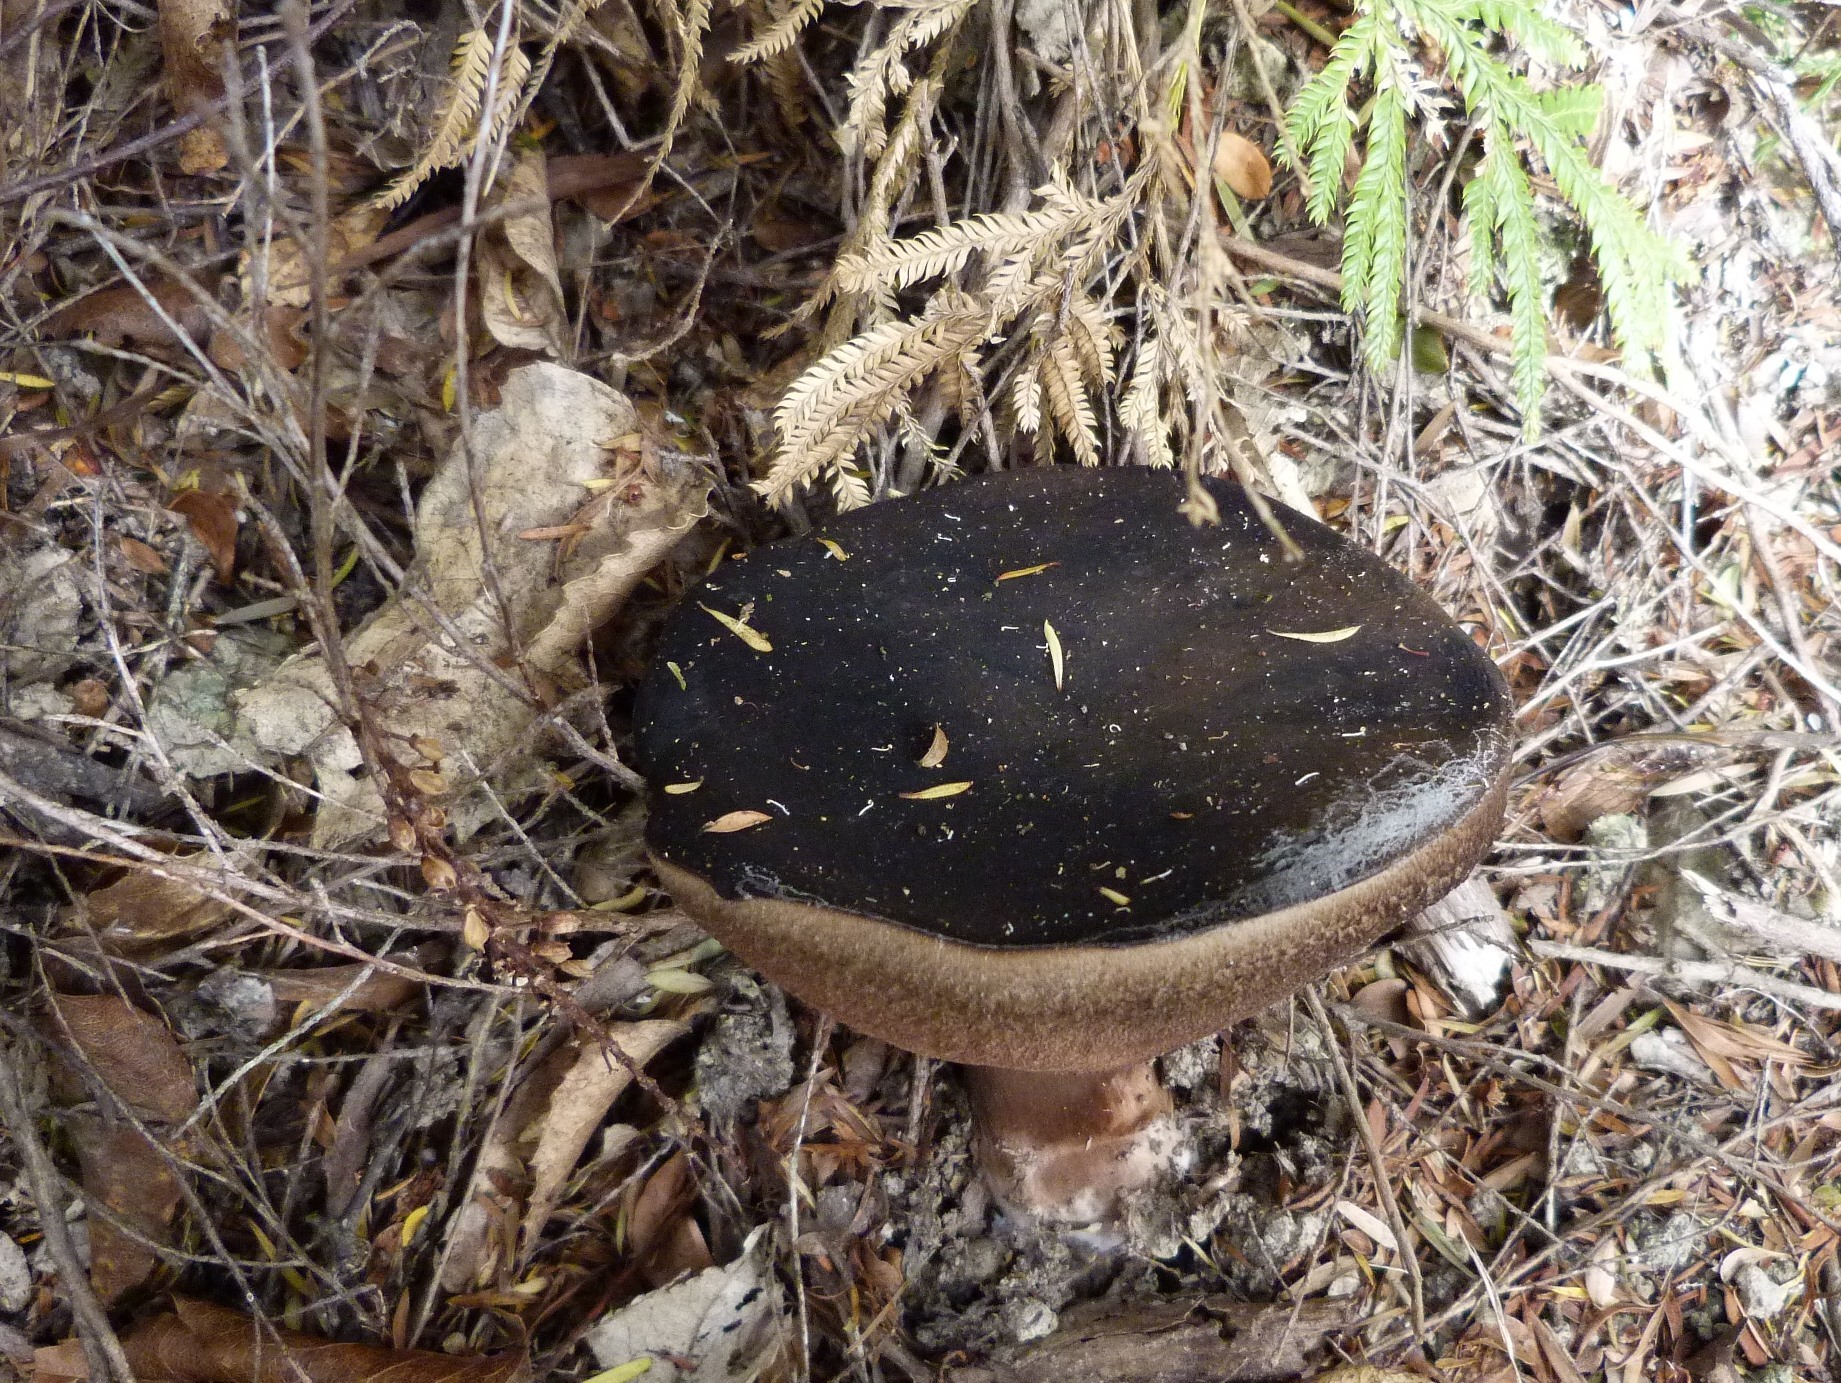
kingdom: Fungi
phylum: Basidiomycota
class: Agaricomycetes
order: Boletales
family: Boletaceae
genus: Porphyrellus
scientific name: Porphyrellus formosus
